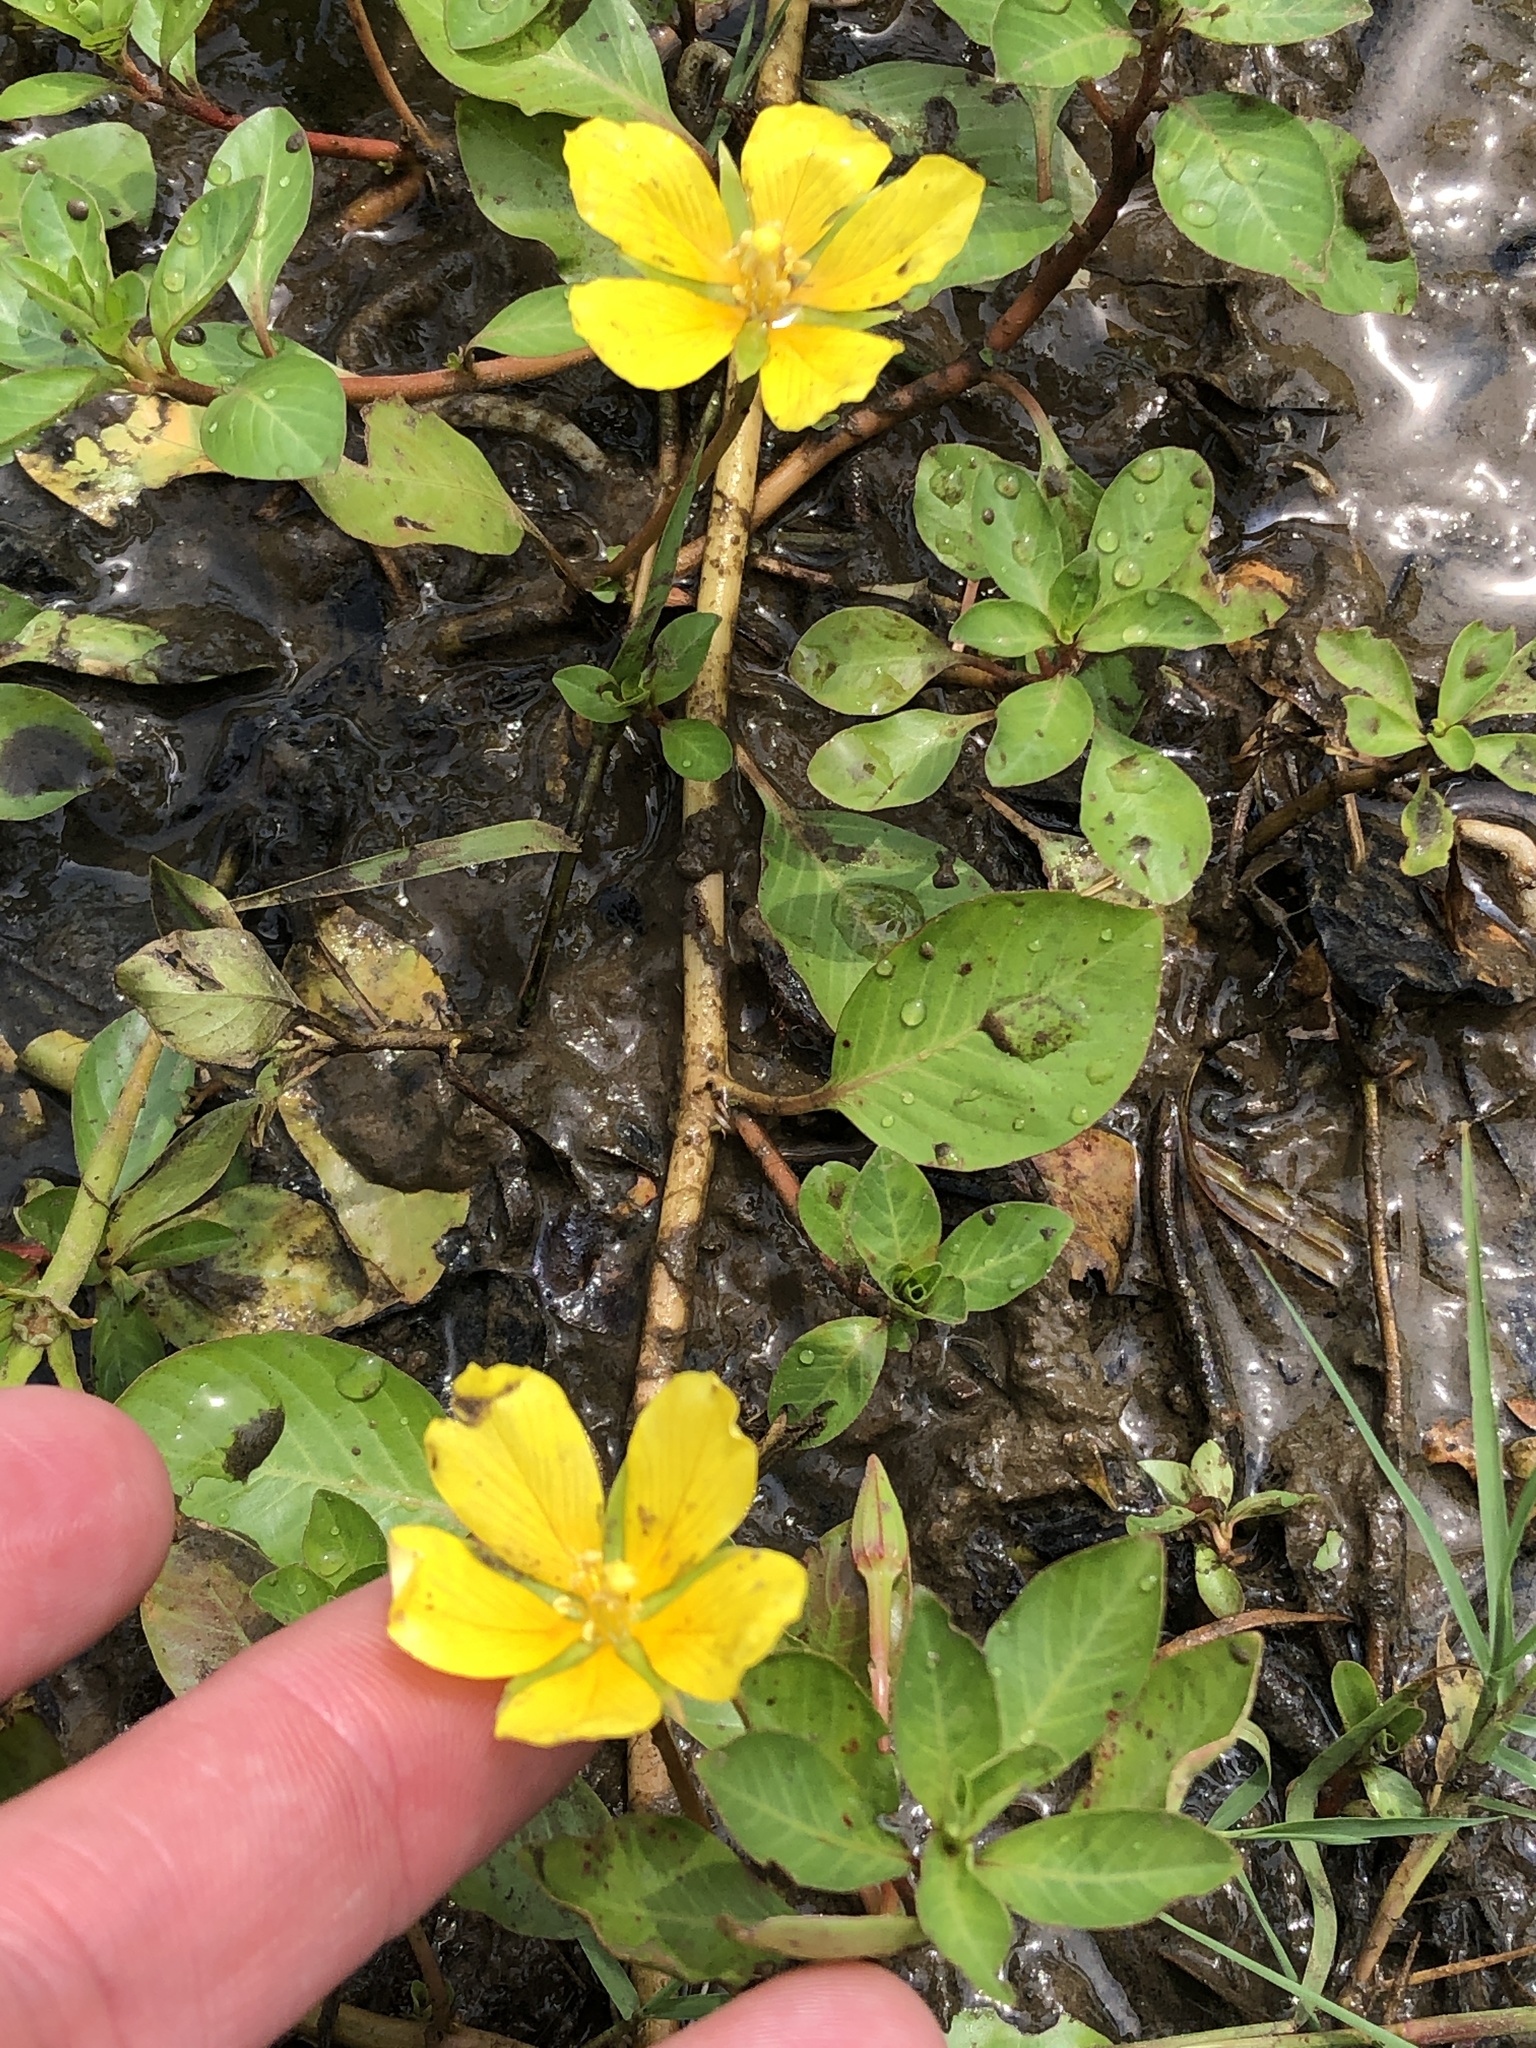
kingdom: Plantae
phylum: Tracheophyta
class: Magnoliopsida
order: Myrtales
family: Onagraceae
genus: Ludwigia
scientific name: Ludwigia peploides
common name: Floating primrose-willow
